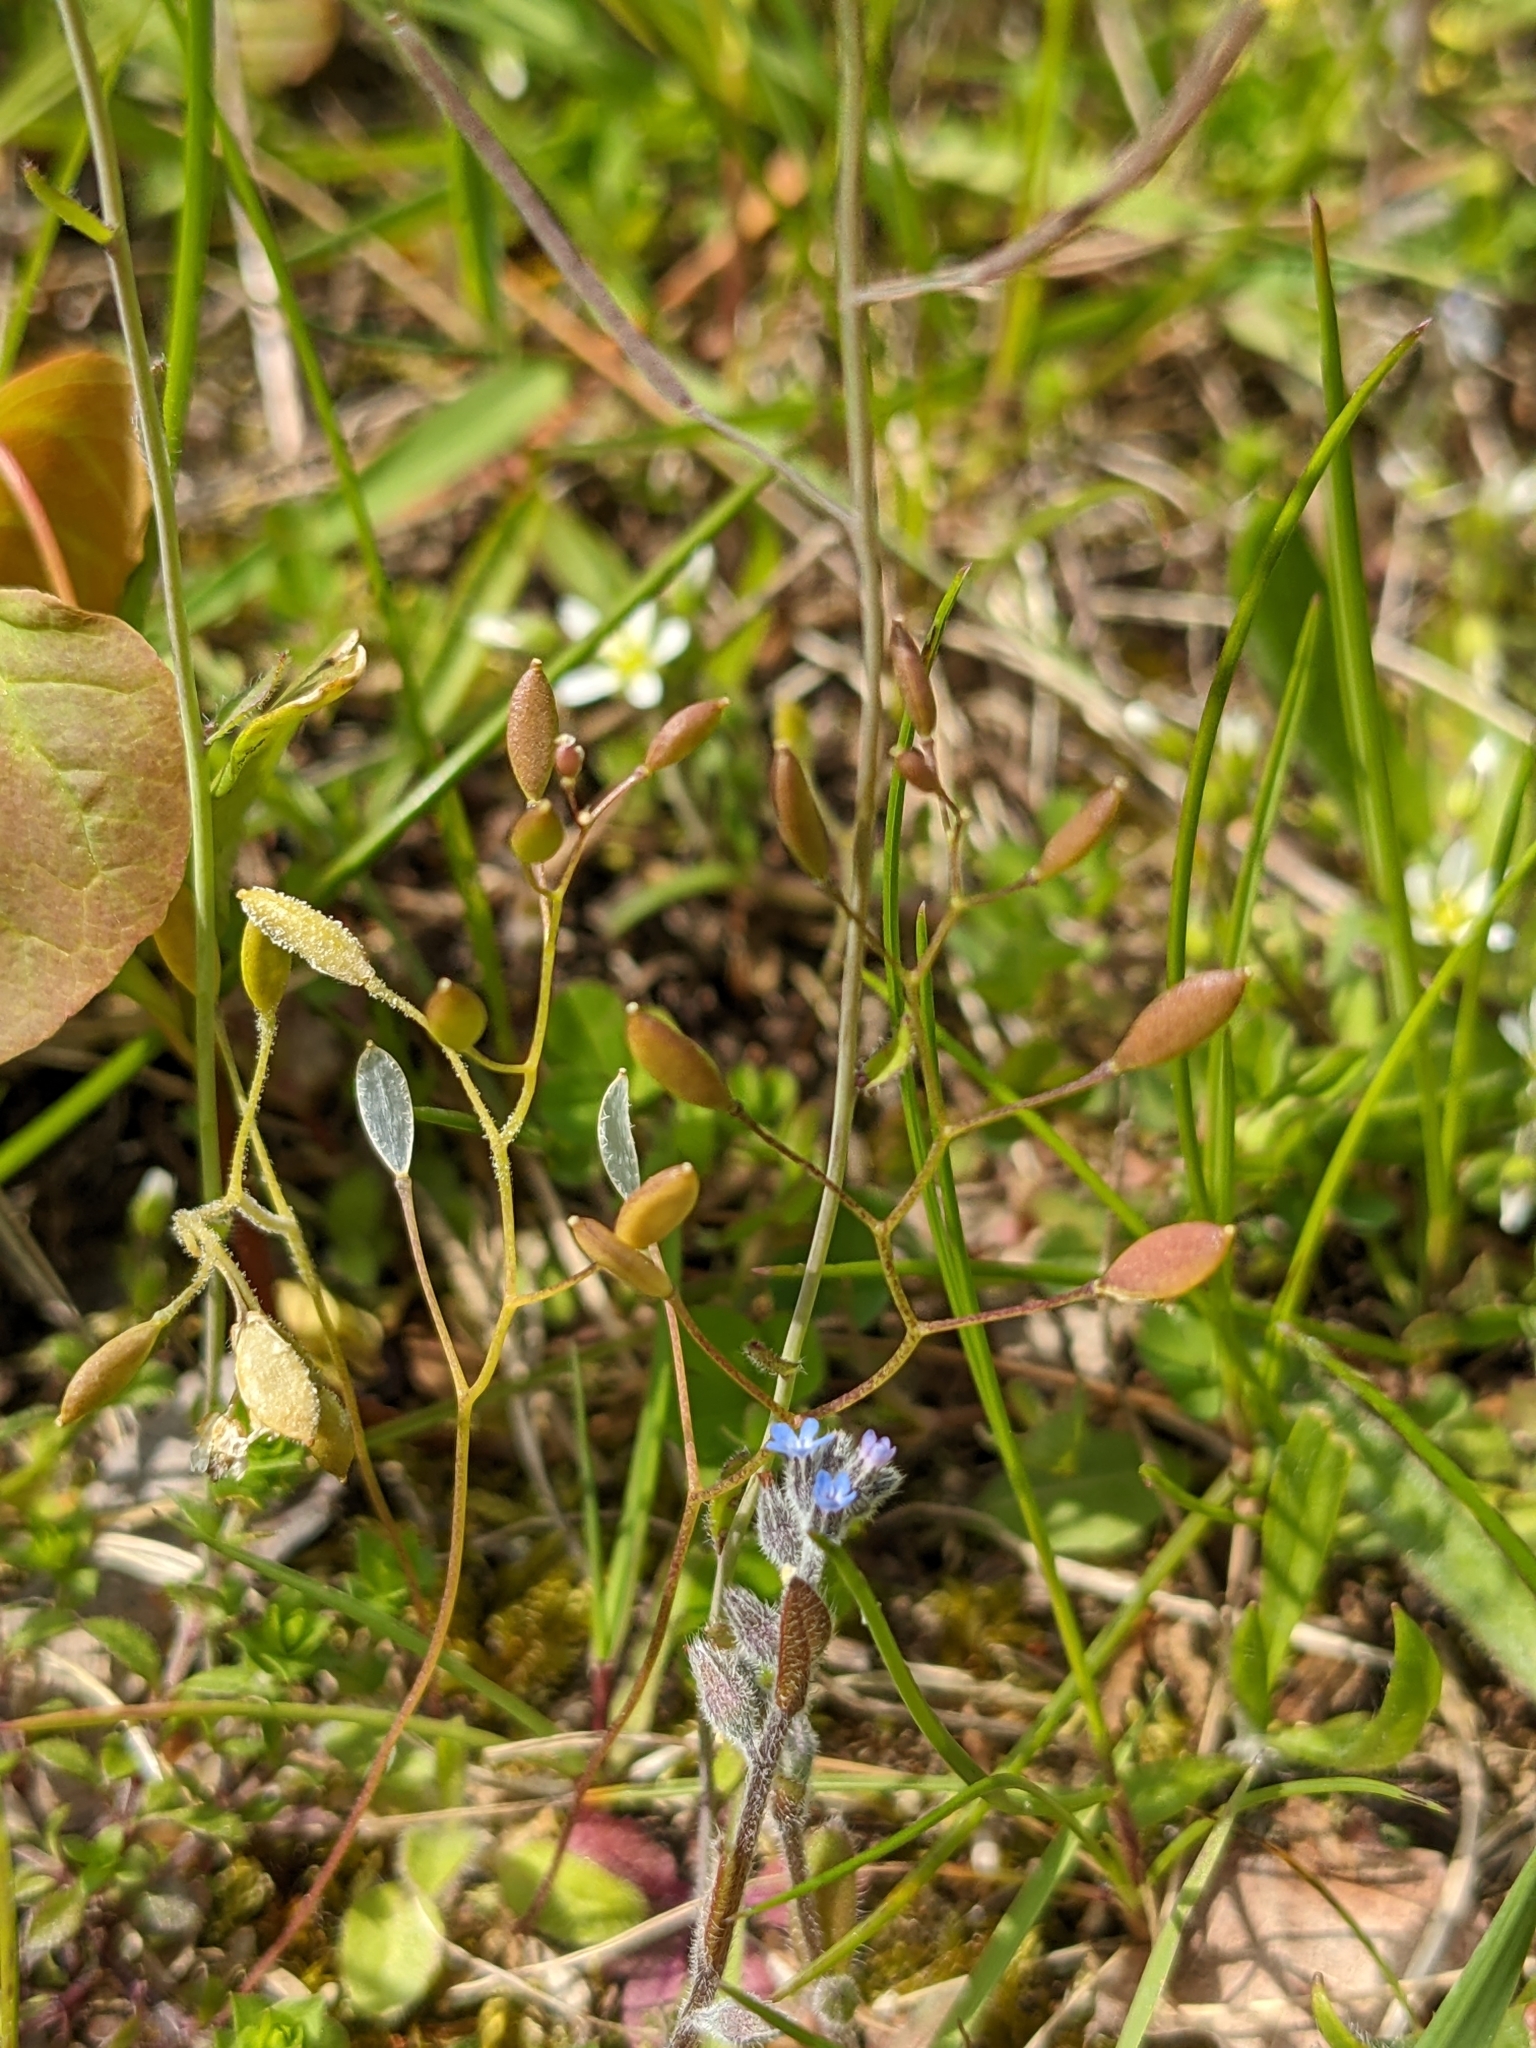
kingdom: Plantae
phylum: Tracheophyta
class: Magnoliopsida
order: Brassicales
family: Brassicaceae
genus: Draba
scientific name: Draba verna
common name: Spring draba
